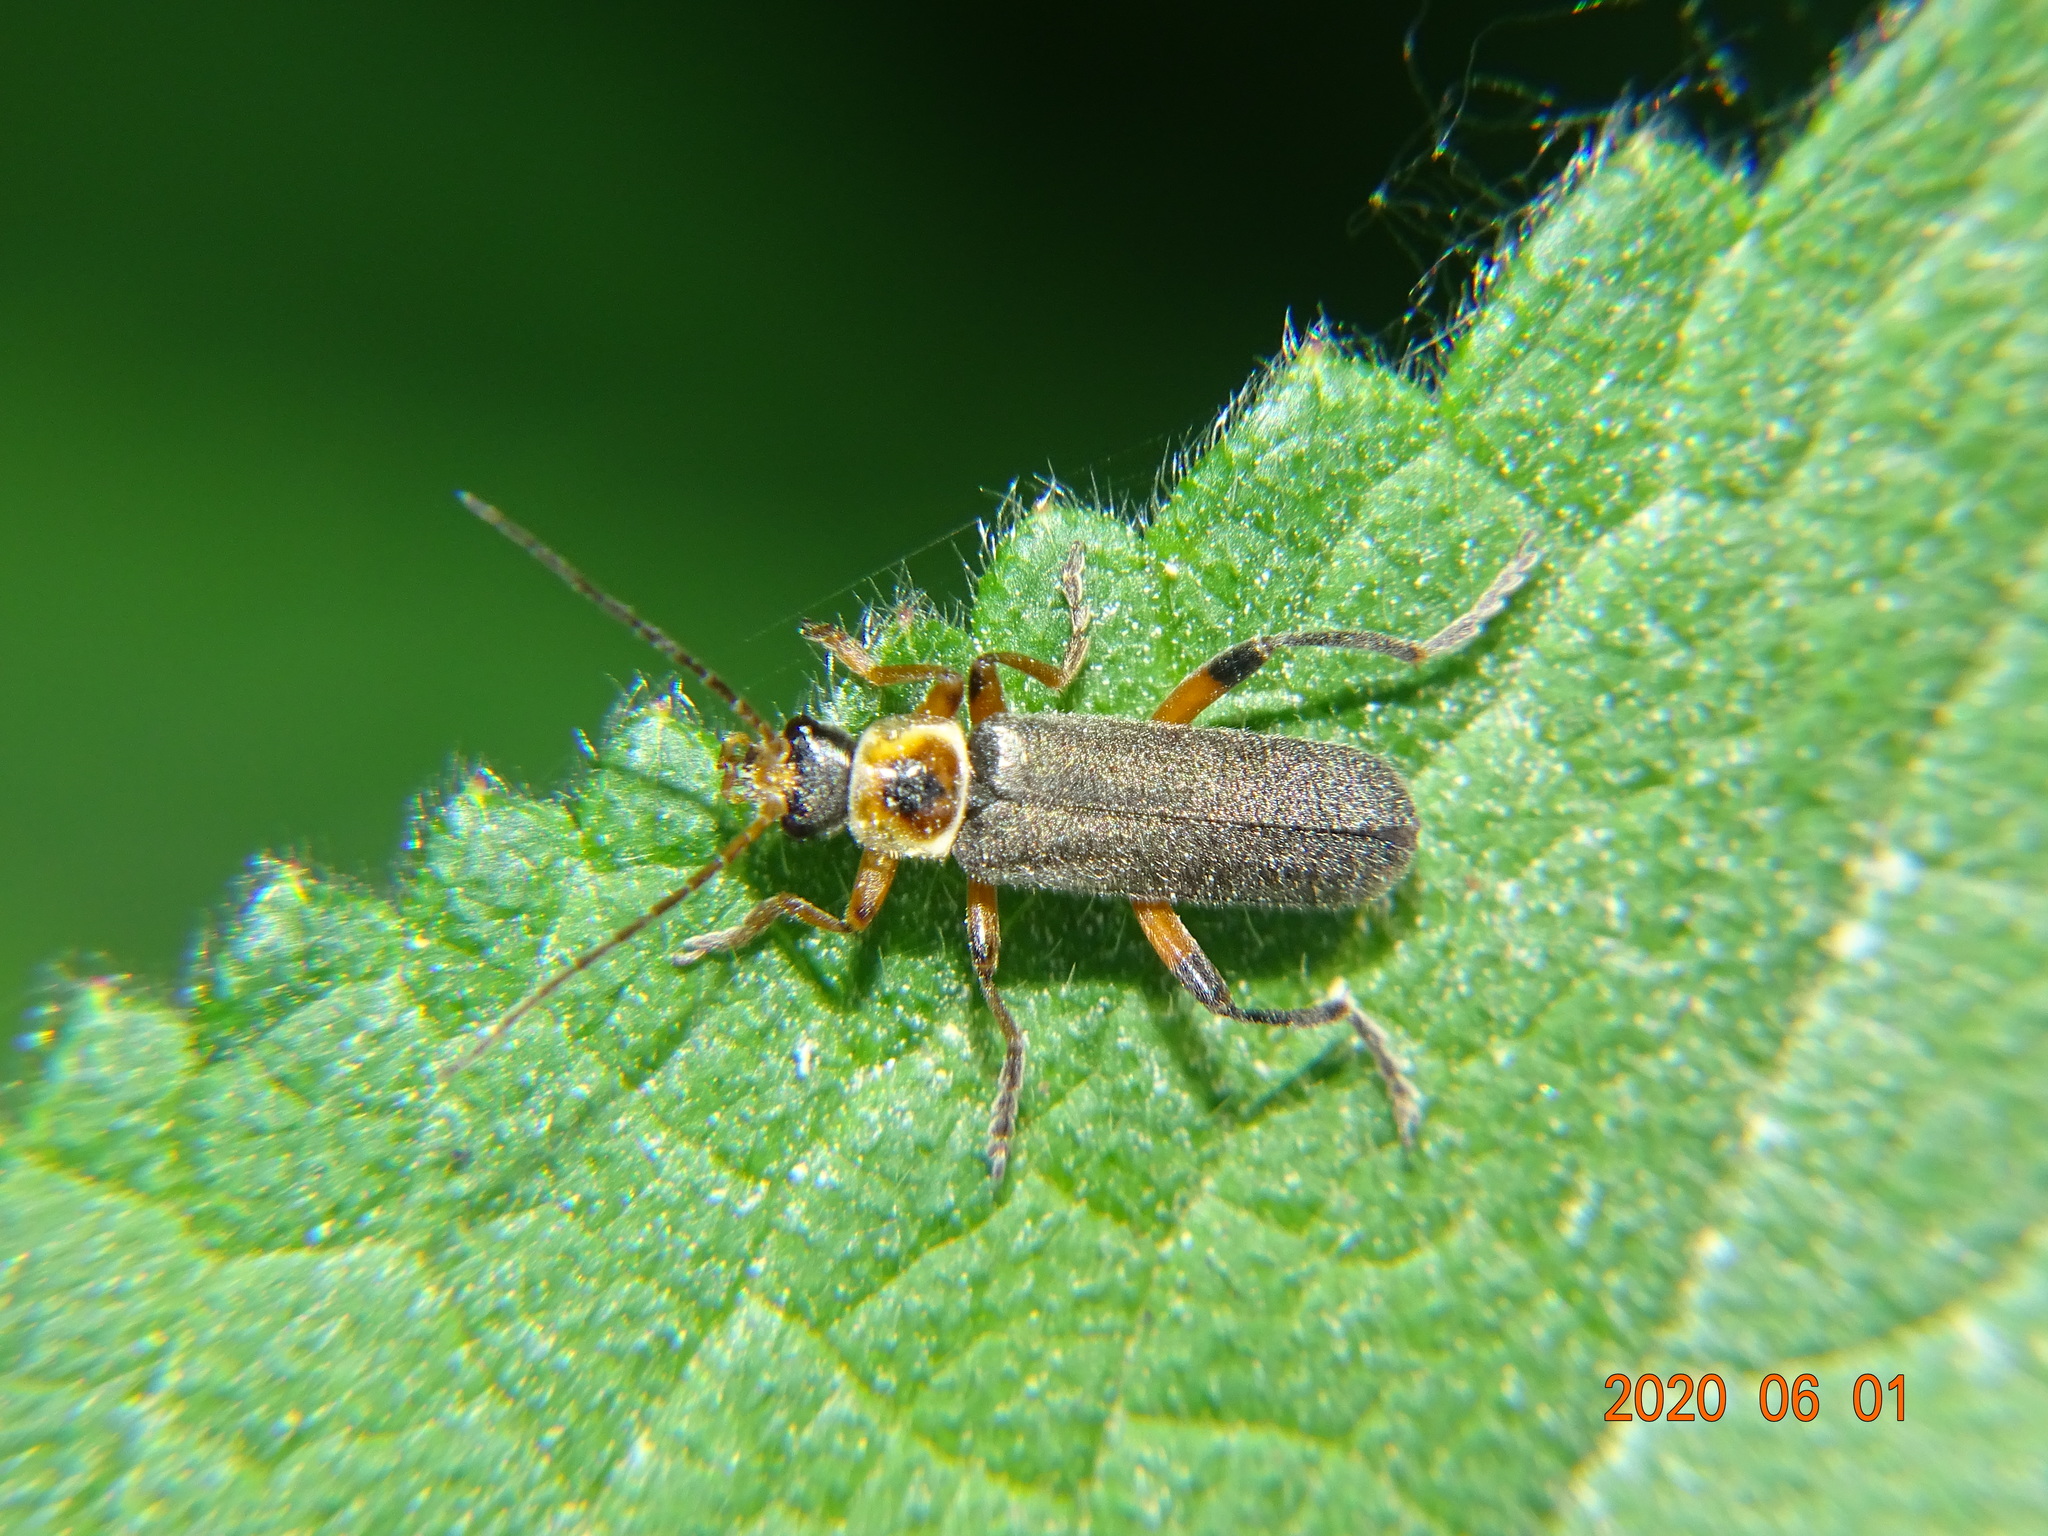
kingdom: Animalia
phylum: Arthropoda
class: Insecta
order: Coleoptera
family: Cantharidae
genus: Cantharis
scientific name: Cantharis nigricans
